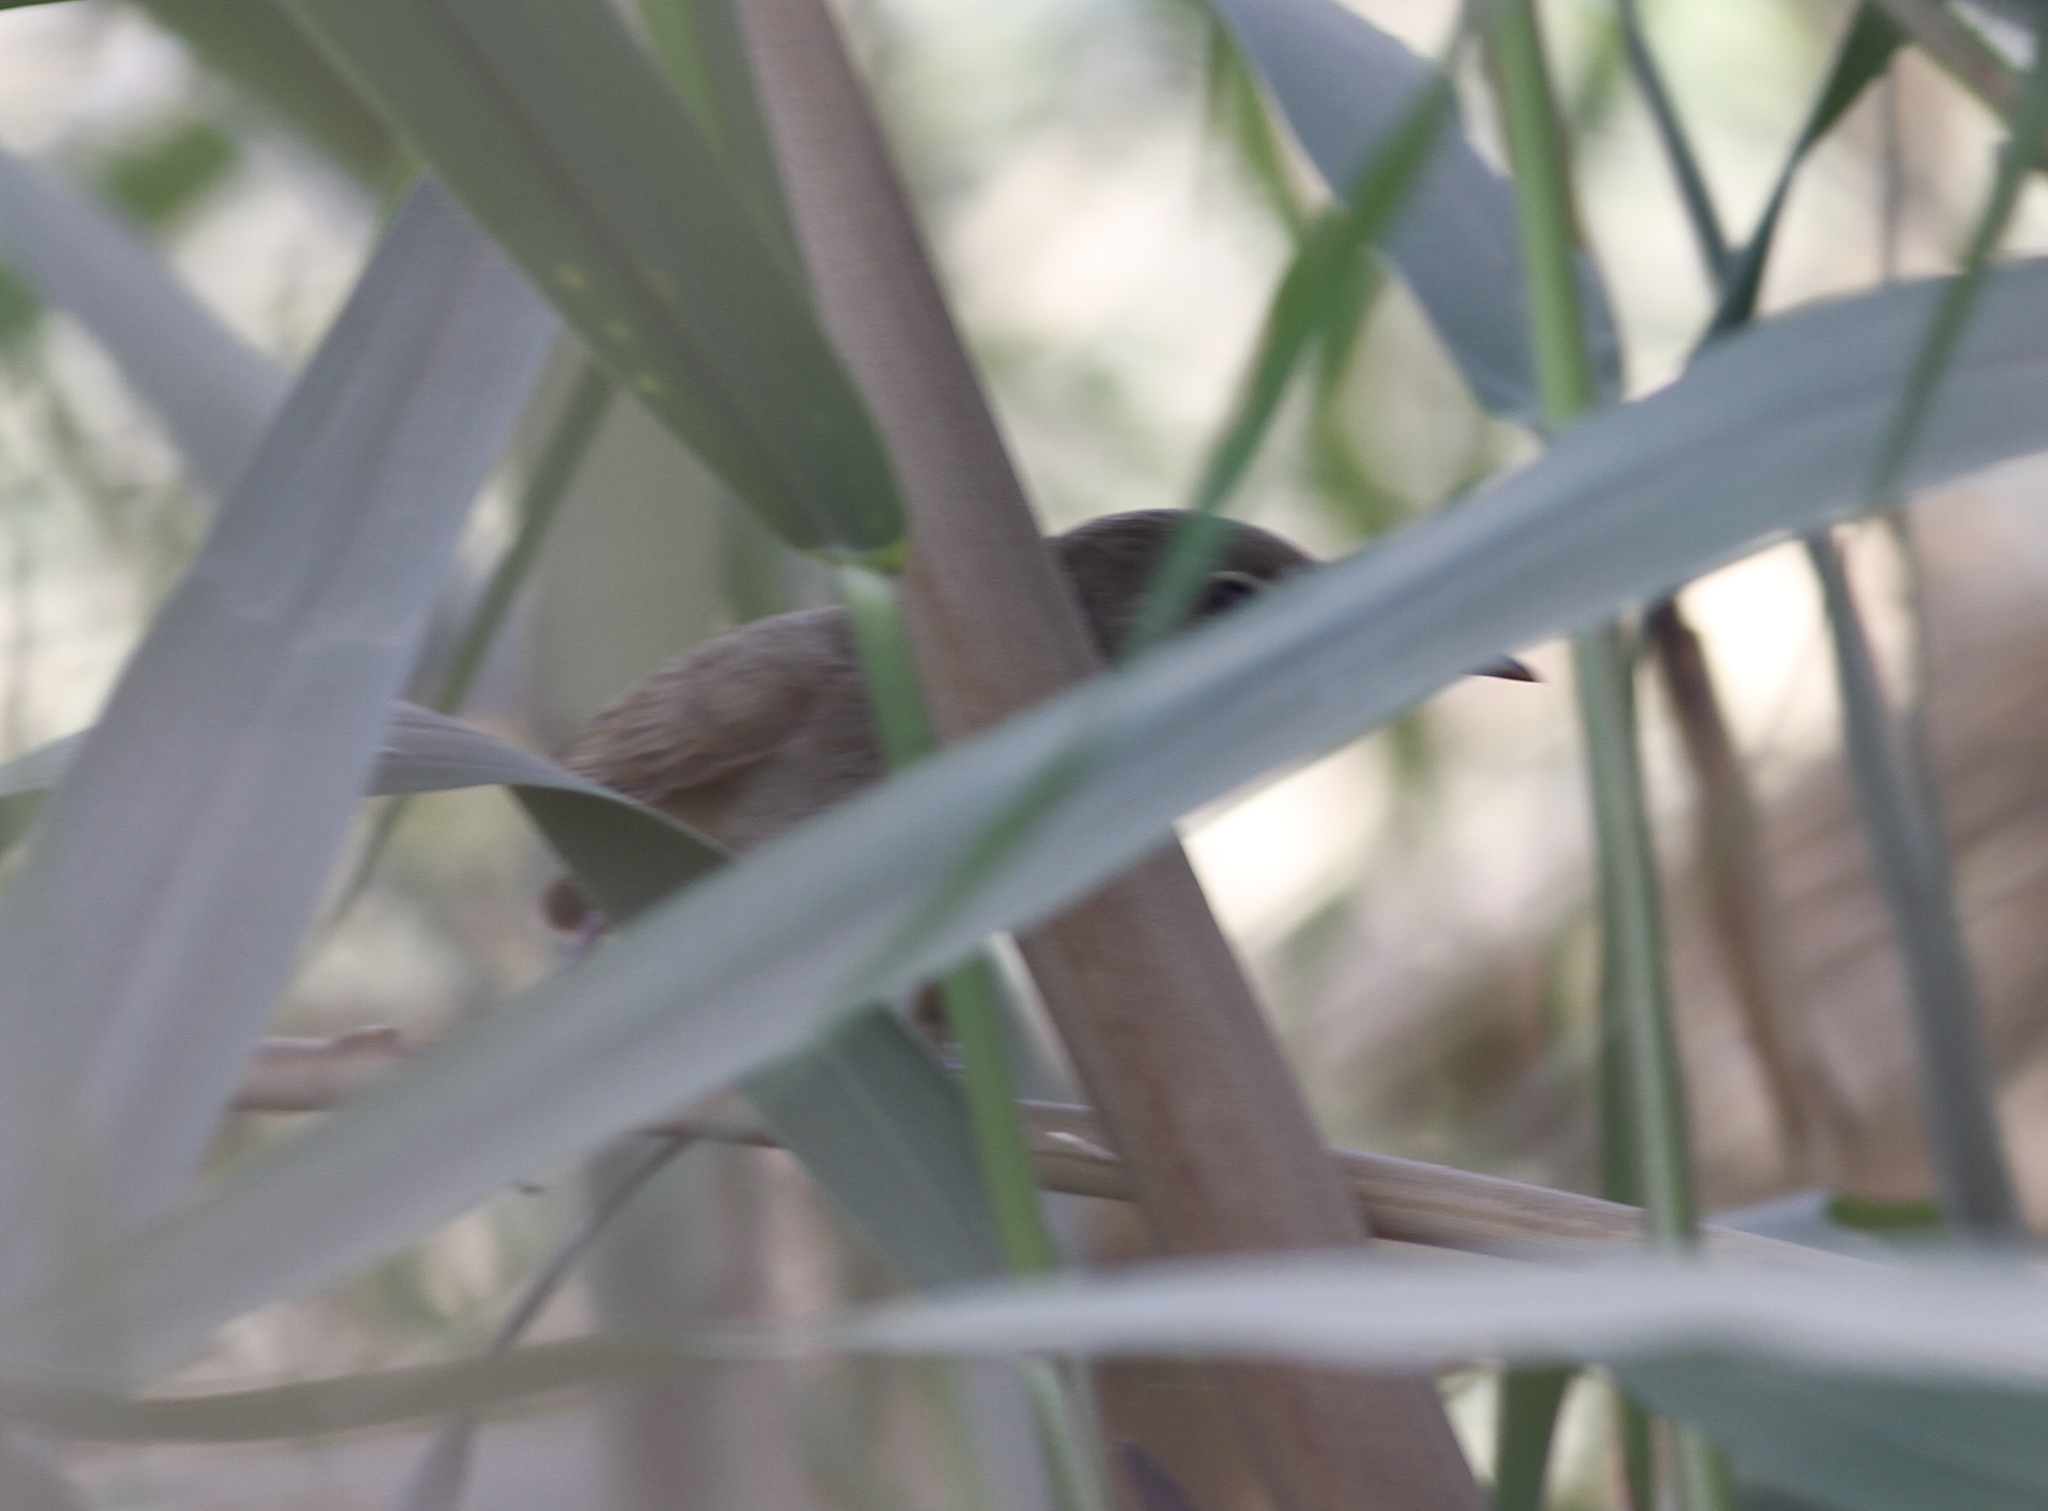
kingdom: Animalia
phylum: Chordata
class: Aves
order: Passeriformes
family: Acrocephalidae
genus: Acrocephalus
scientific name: Acrocephalus stentoreus
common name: Clamorous reed warbler
